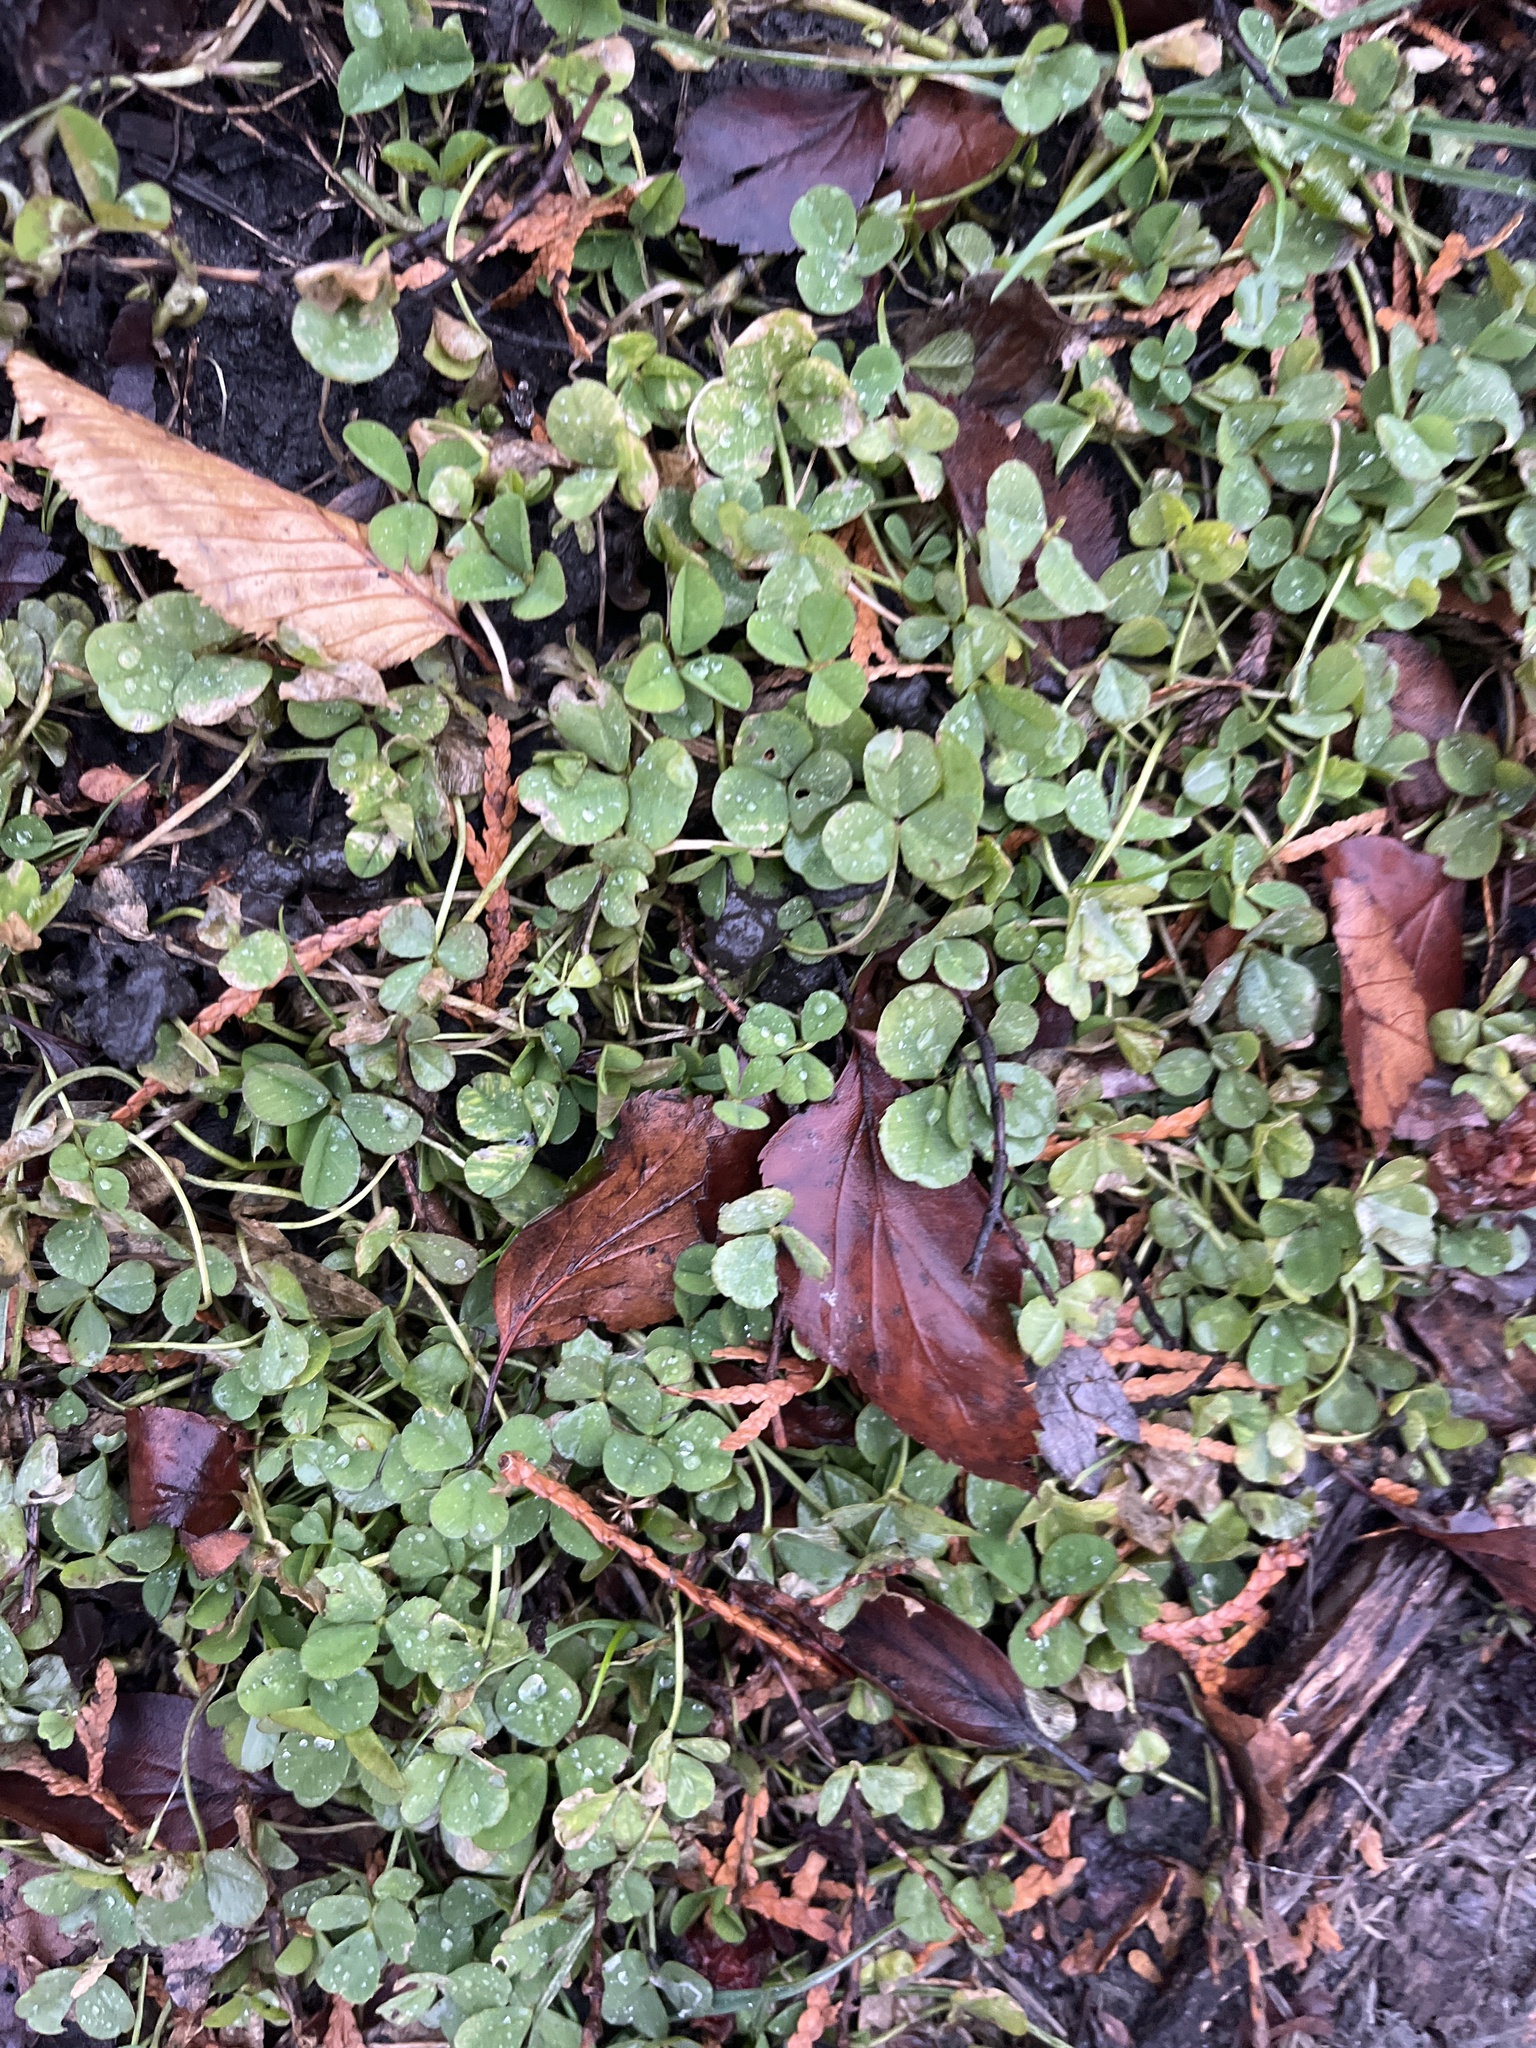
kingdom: Plantae
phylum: Tracheophyta
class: Magnoliopsida
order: Fabales
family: Fabaceae
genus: Trifolium
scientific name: Trifolium repens
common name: White clover
